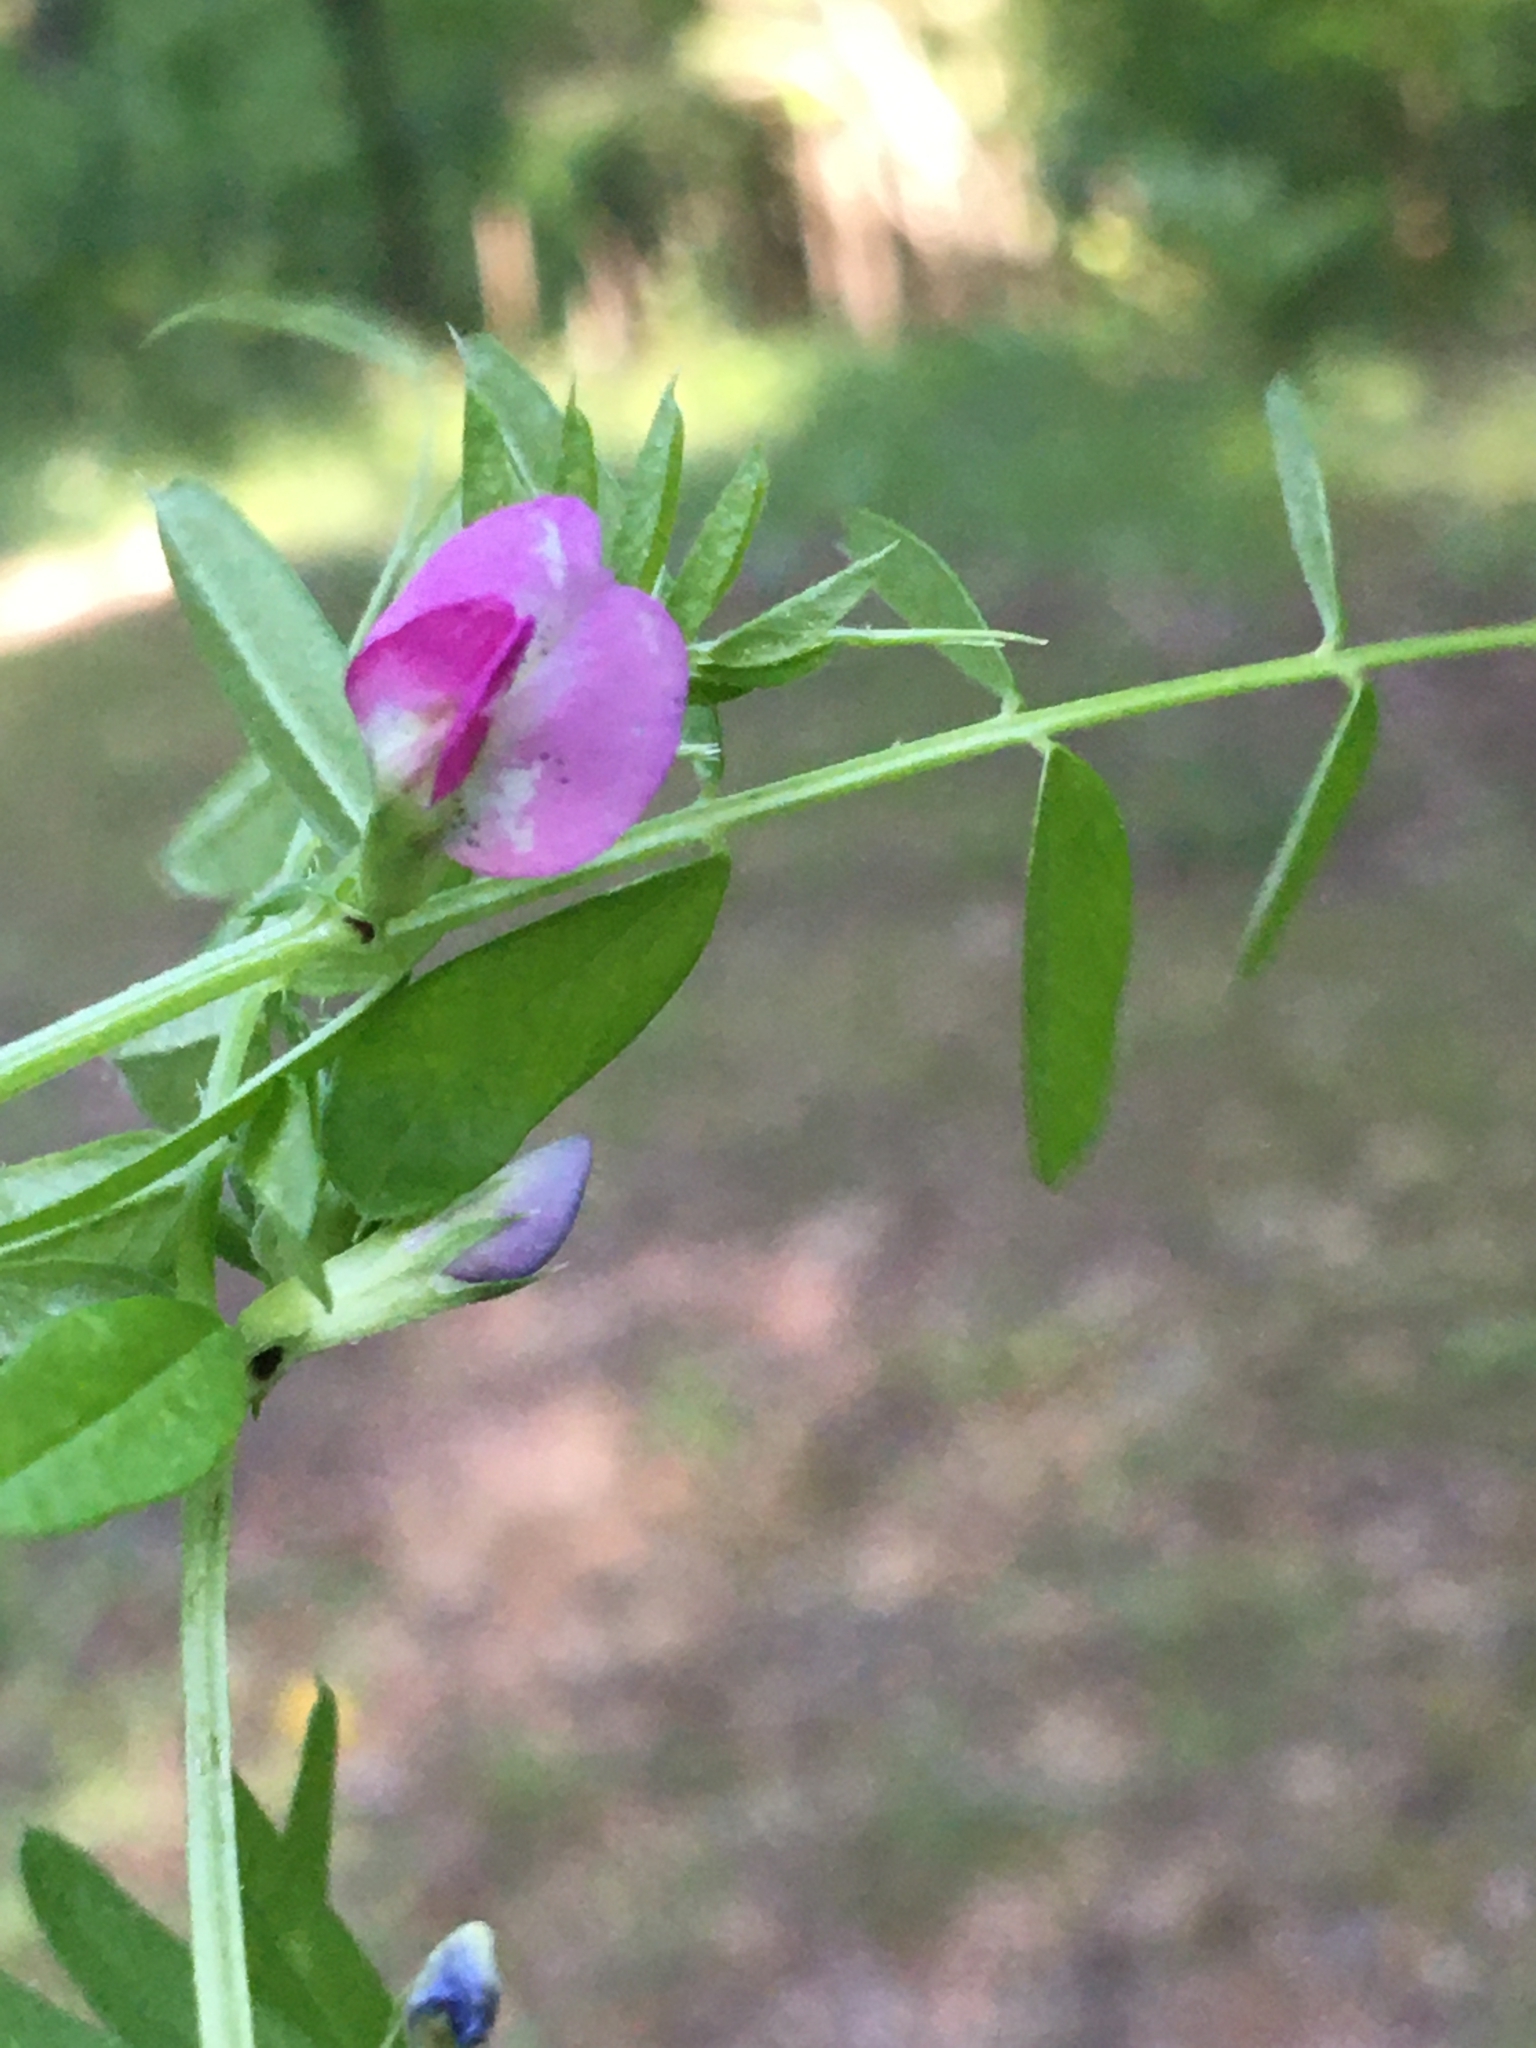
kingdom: Plantae
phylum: Tracheophyta
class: Magnoliopsida
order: Fabales
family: Fabaceae
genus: Vicia
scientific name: Vicia sativa
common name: Garden vetch
